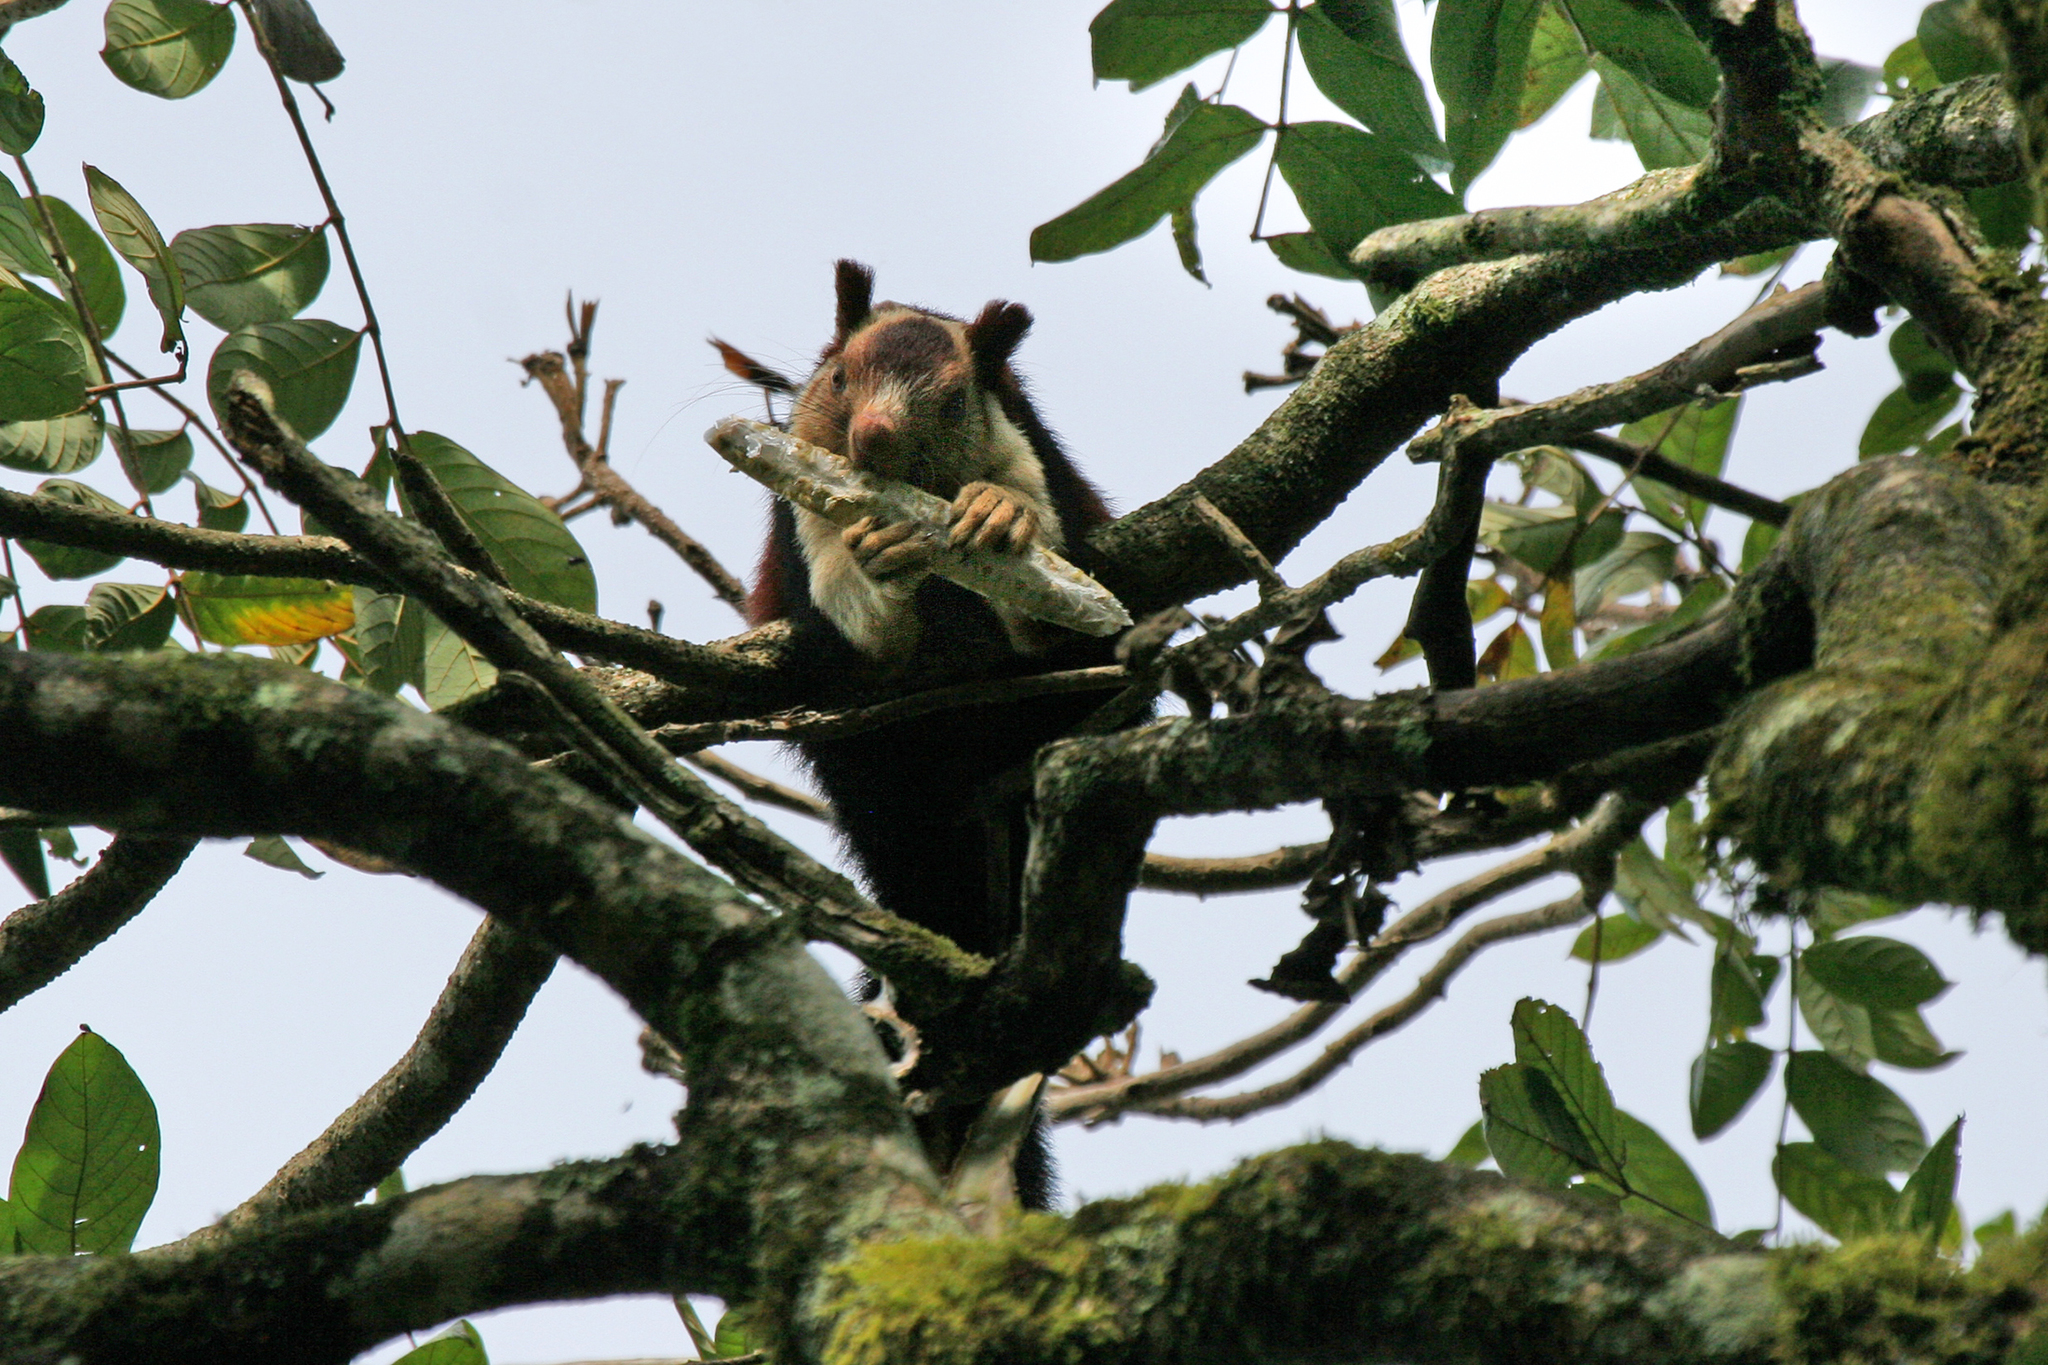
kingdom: Animalia
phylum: Chordata
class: Mammalia
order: Rodentia
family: Sciuridae
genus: Ratufa
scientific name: Ratufa indica
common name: Indian giant squirrel
